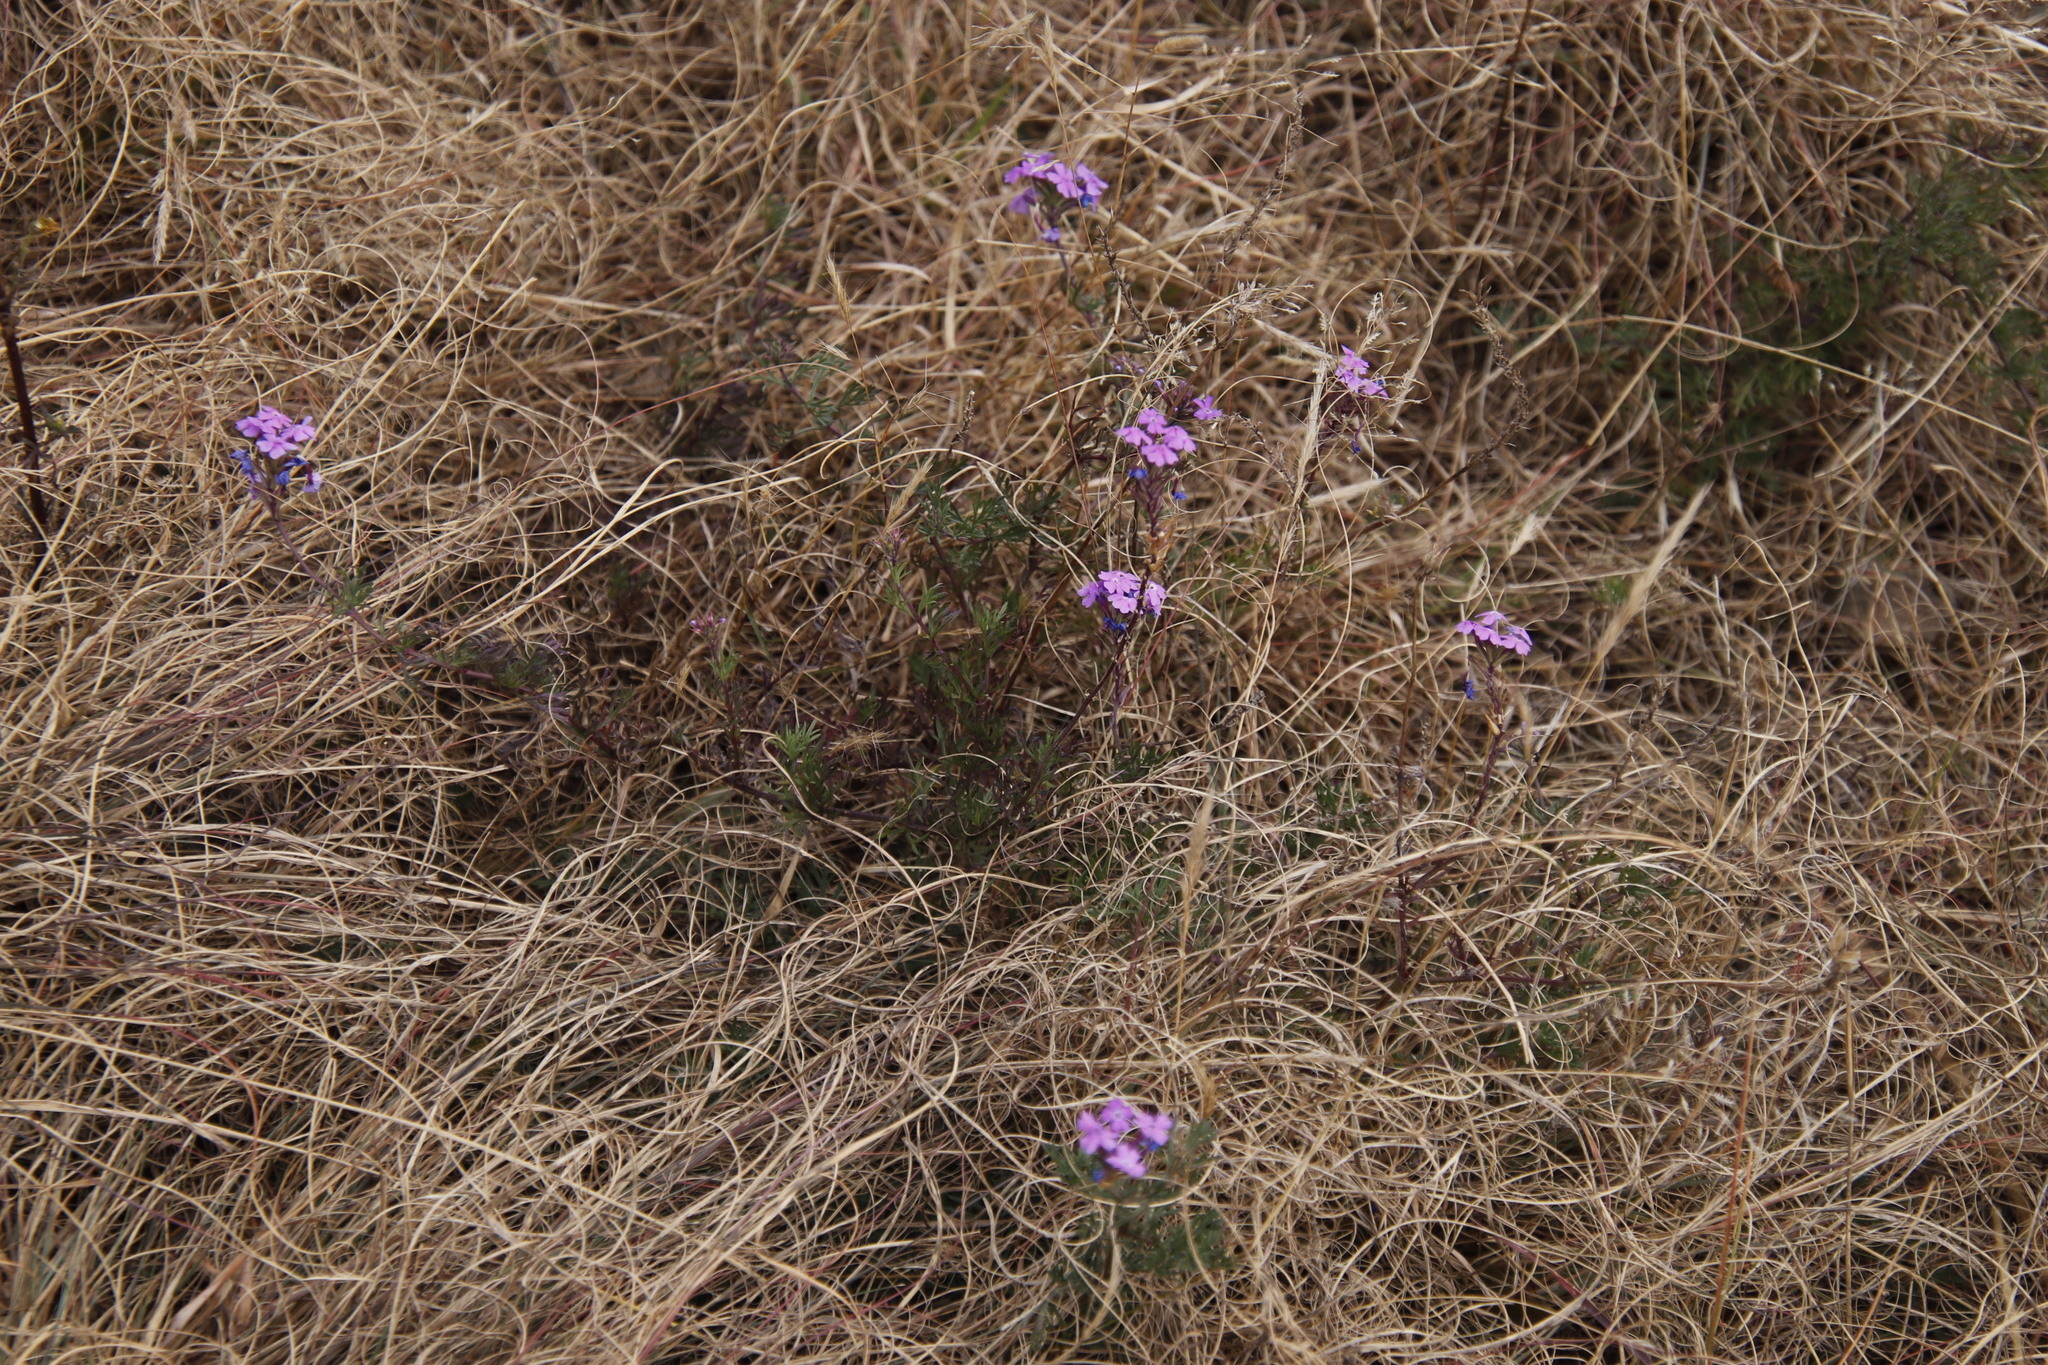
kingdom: Plantae
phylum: Tracheophyta
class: Magnoliopsida
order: Lamiales
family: Verbenaceae
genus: Verbena
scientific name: Verbena aristigera
